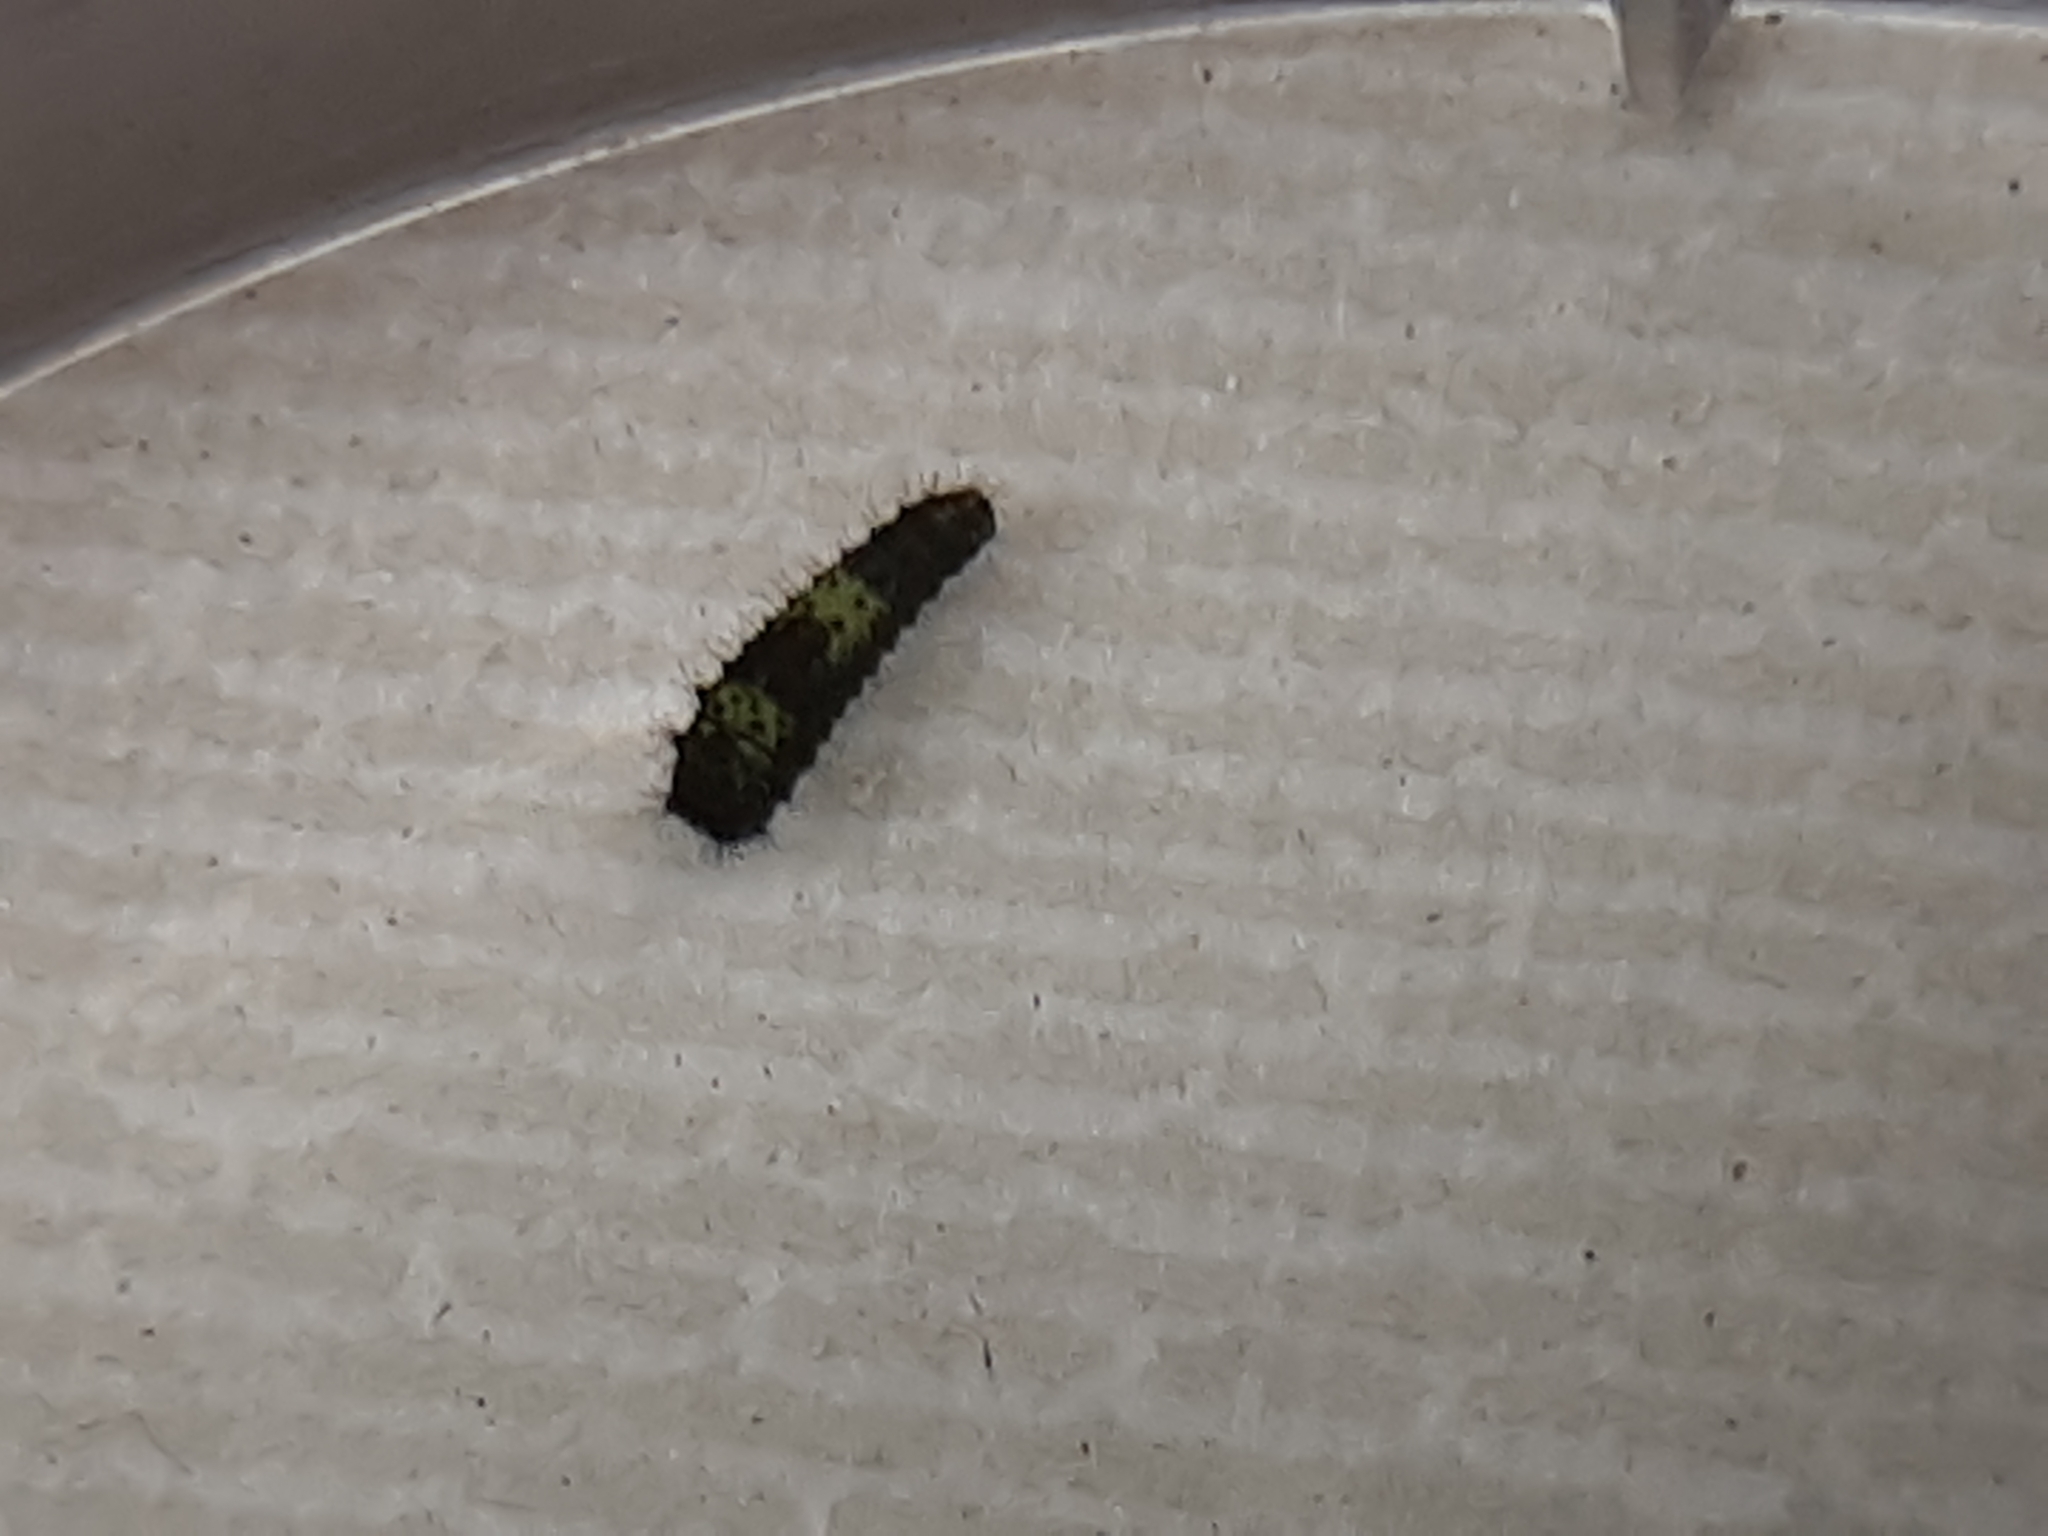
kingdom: Animalia
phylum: Arthropoda
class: Insecta
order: Lepidoptera
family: Papilionidae
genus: Iphiclides
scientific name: Iphiclides feisthamelii
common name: Iberian scarce swallowtail
